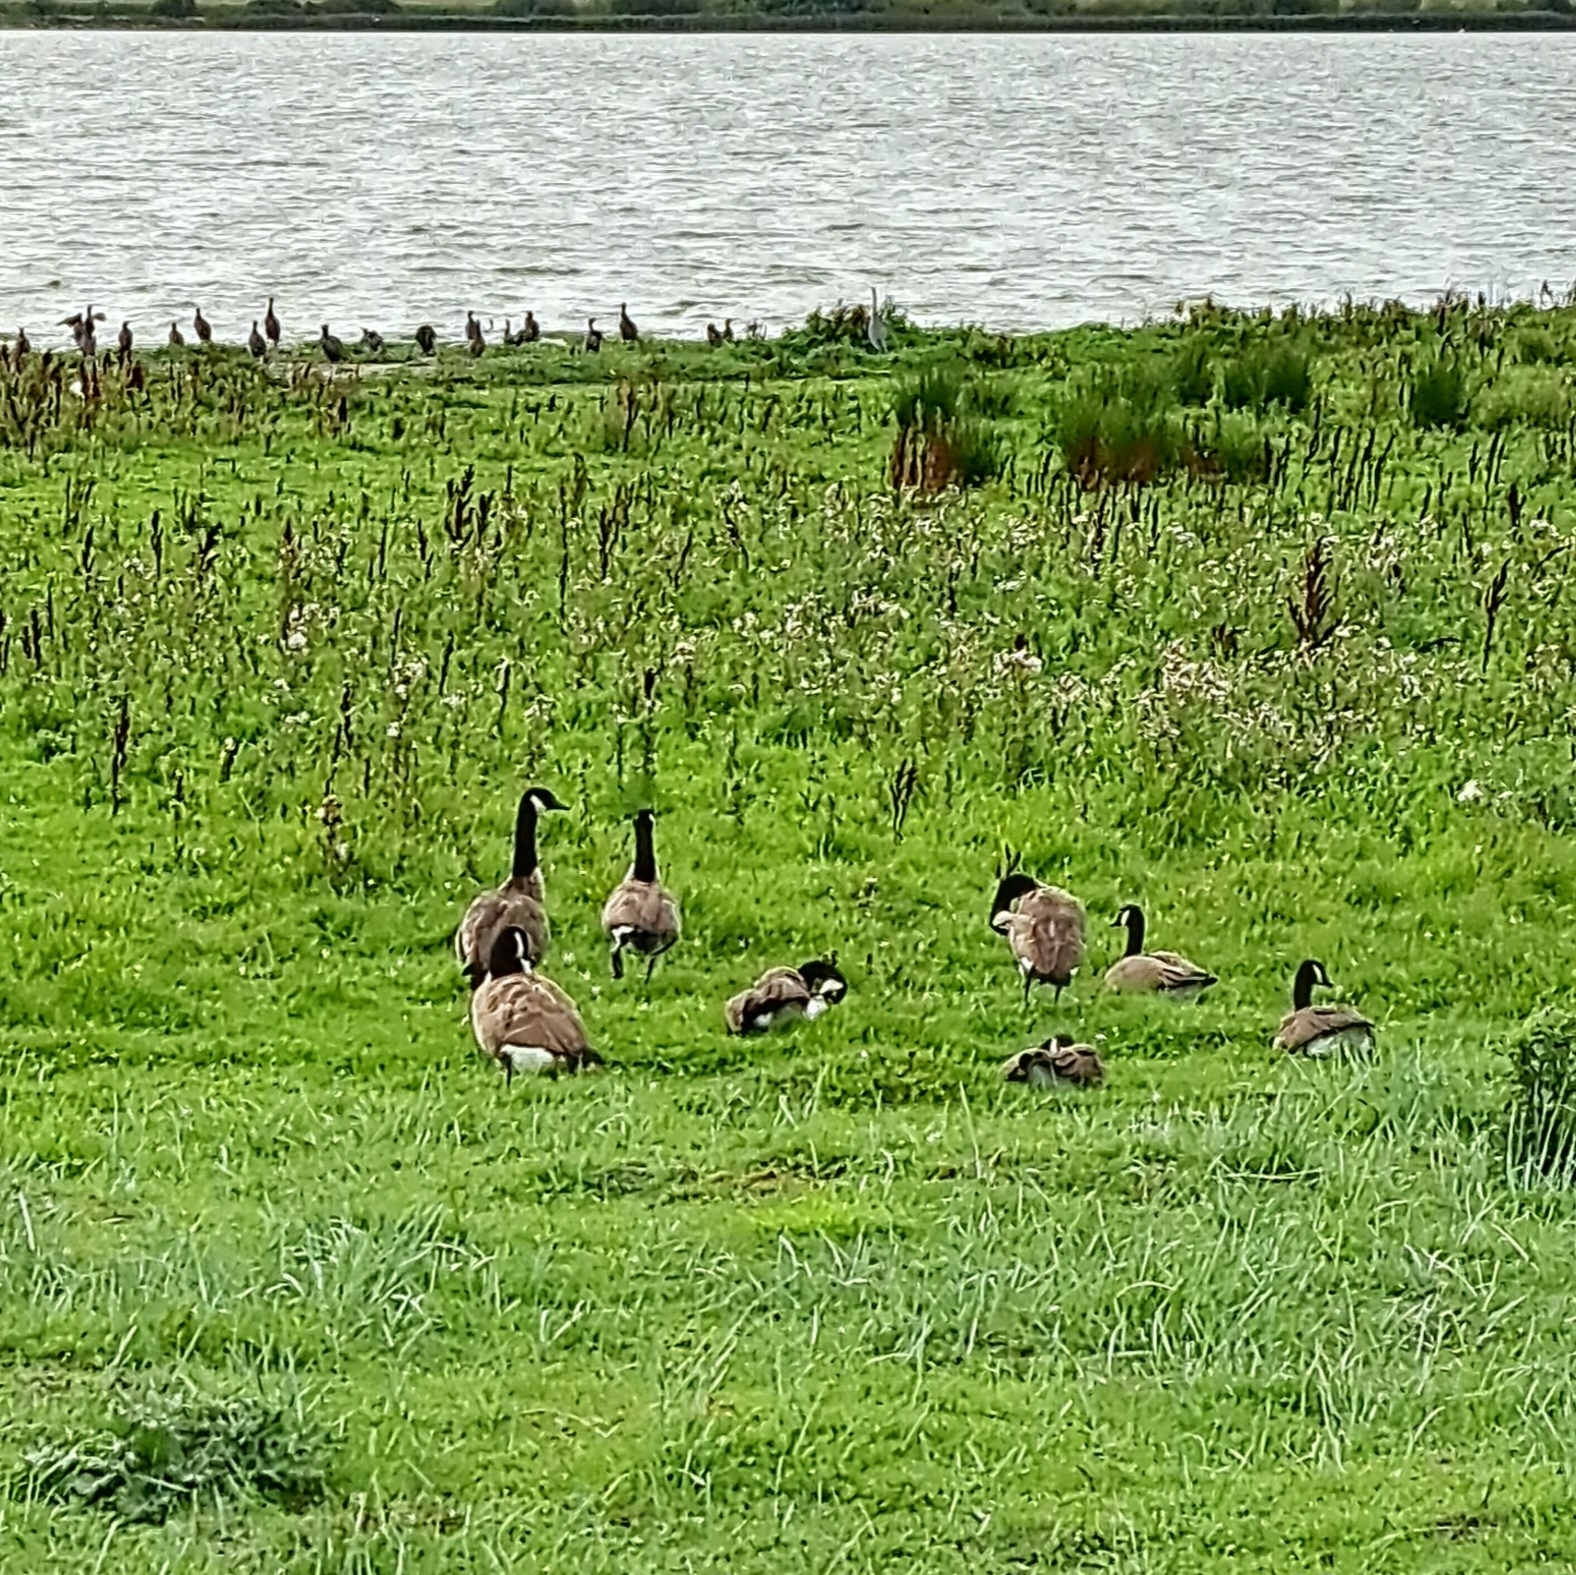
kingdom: Animalia
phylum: Chordata
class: Aves
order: Anseriformes
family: Anatidae
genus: Branta
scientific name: Branta canadensis
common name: Canada goose
